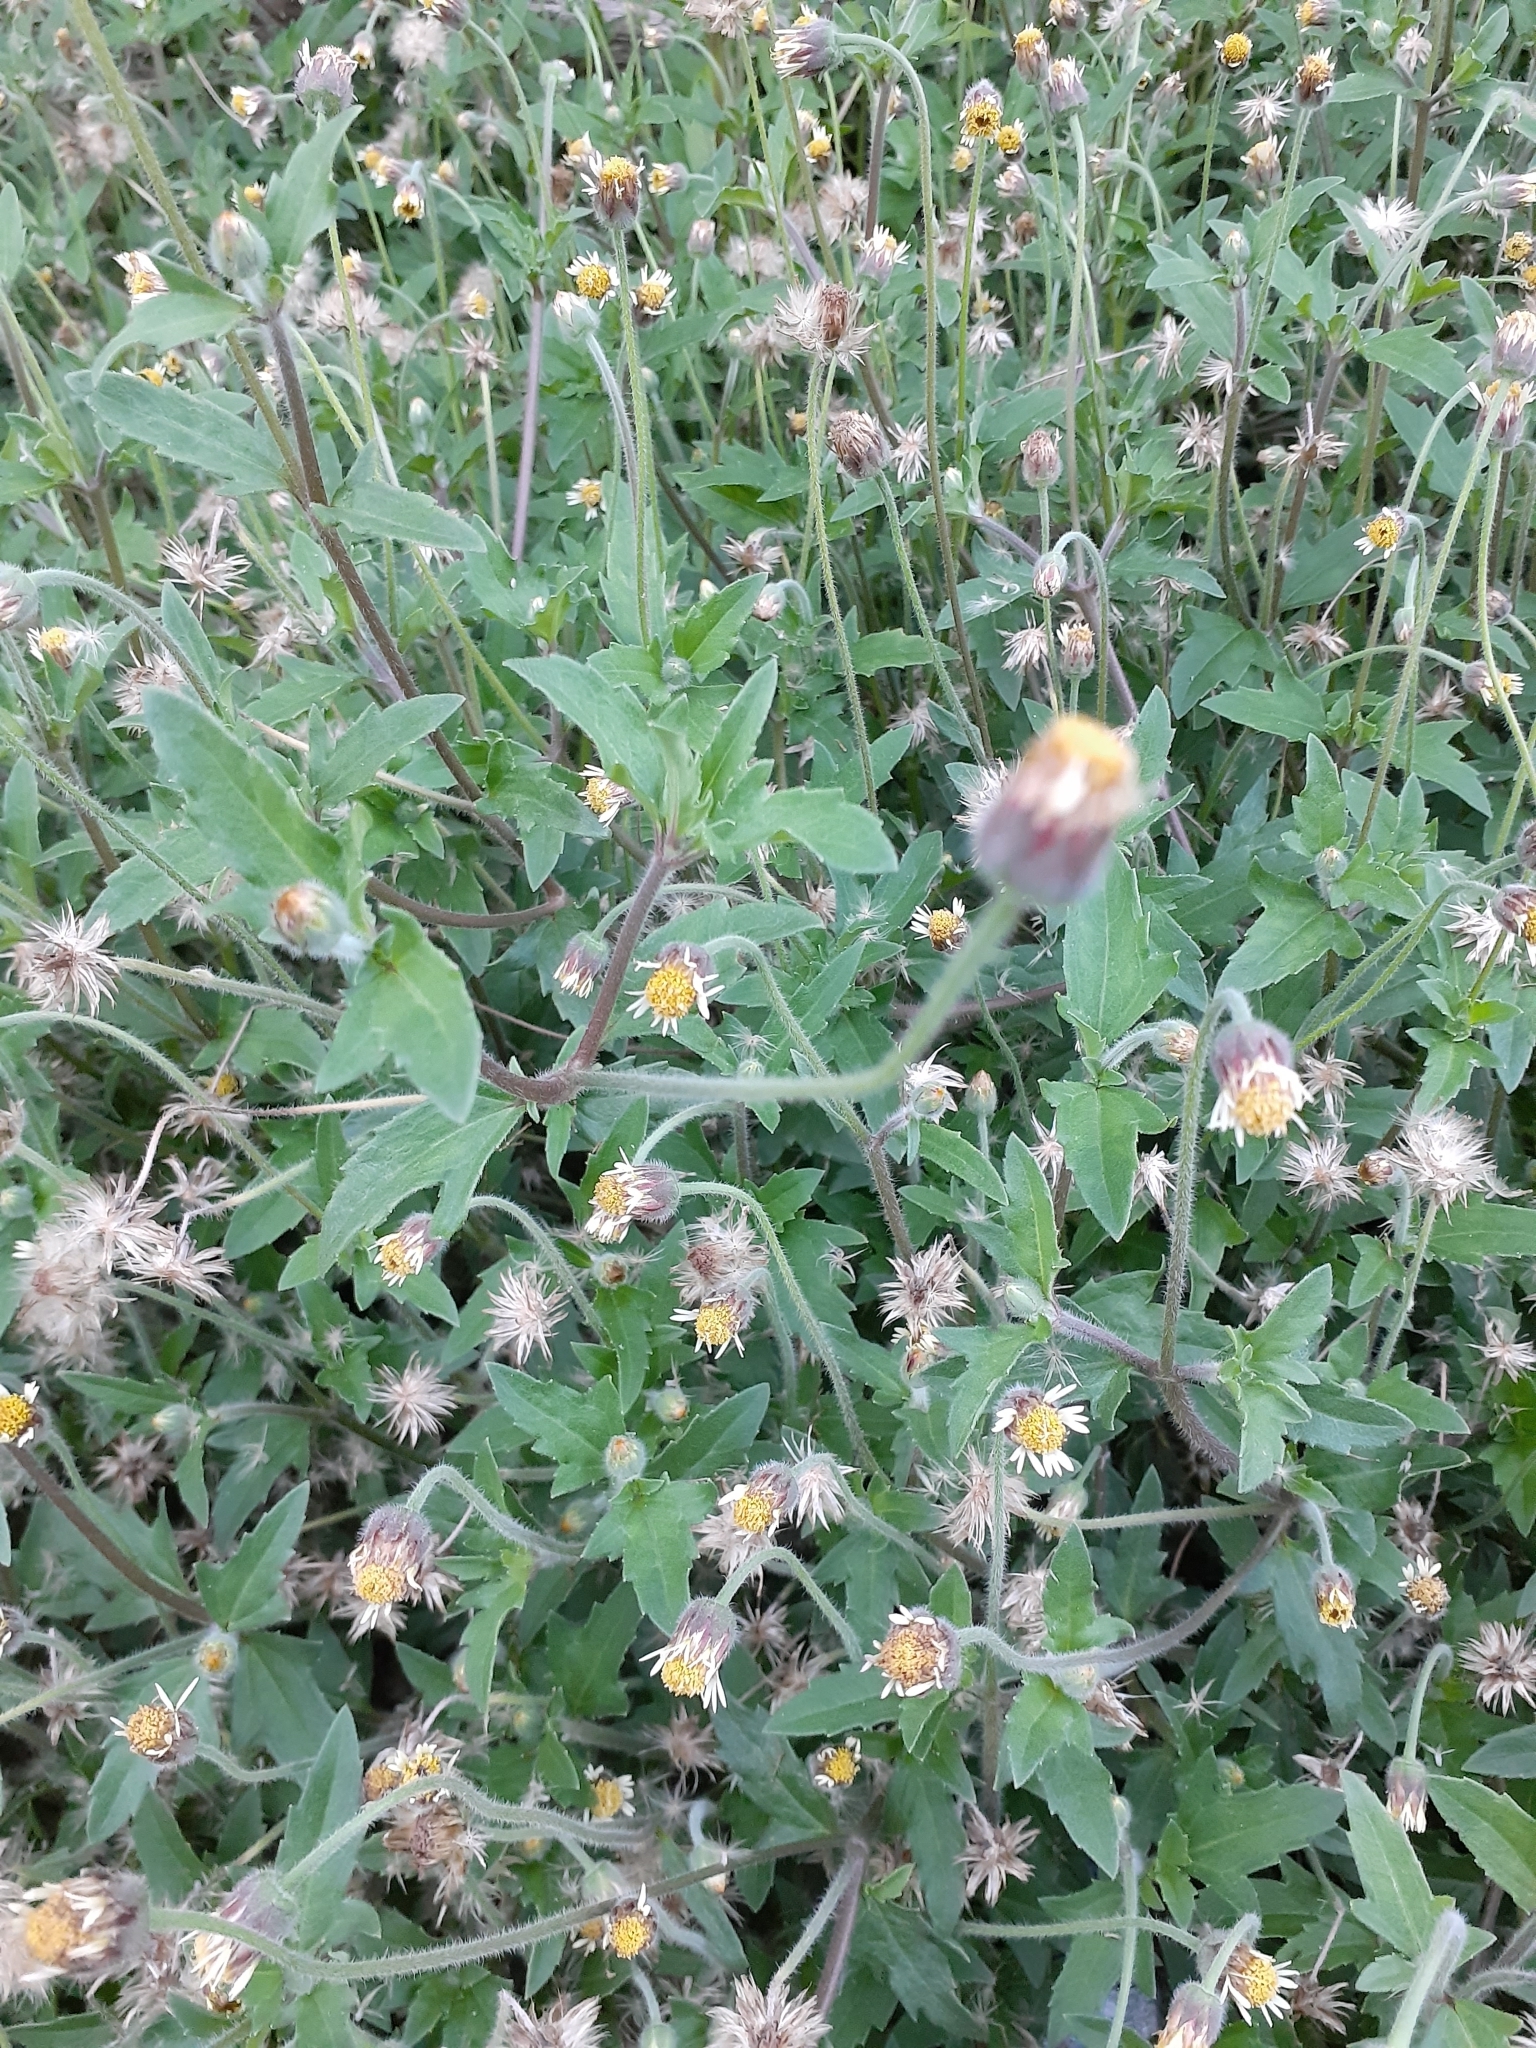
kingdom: Plantae
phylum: Tracheophyta
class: Magnoliopsida
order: Asterales
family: Asteraceae
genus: Tridax
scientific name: Tridax procumbens
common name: Coatbuttons
